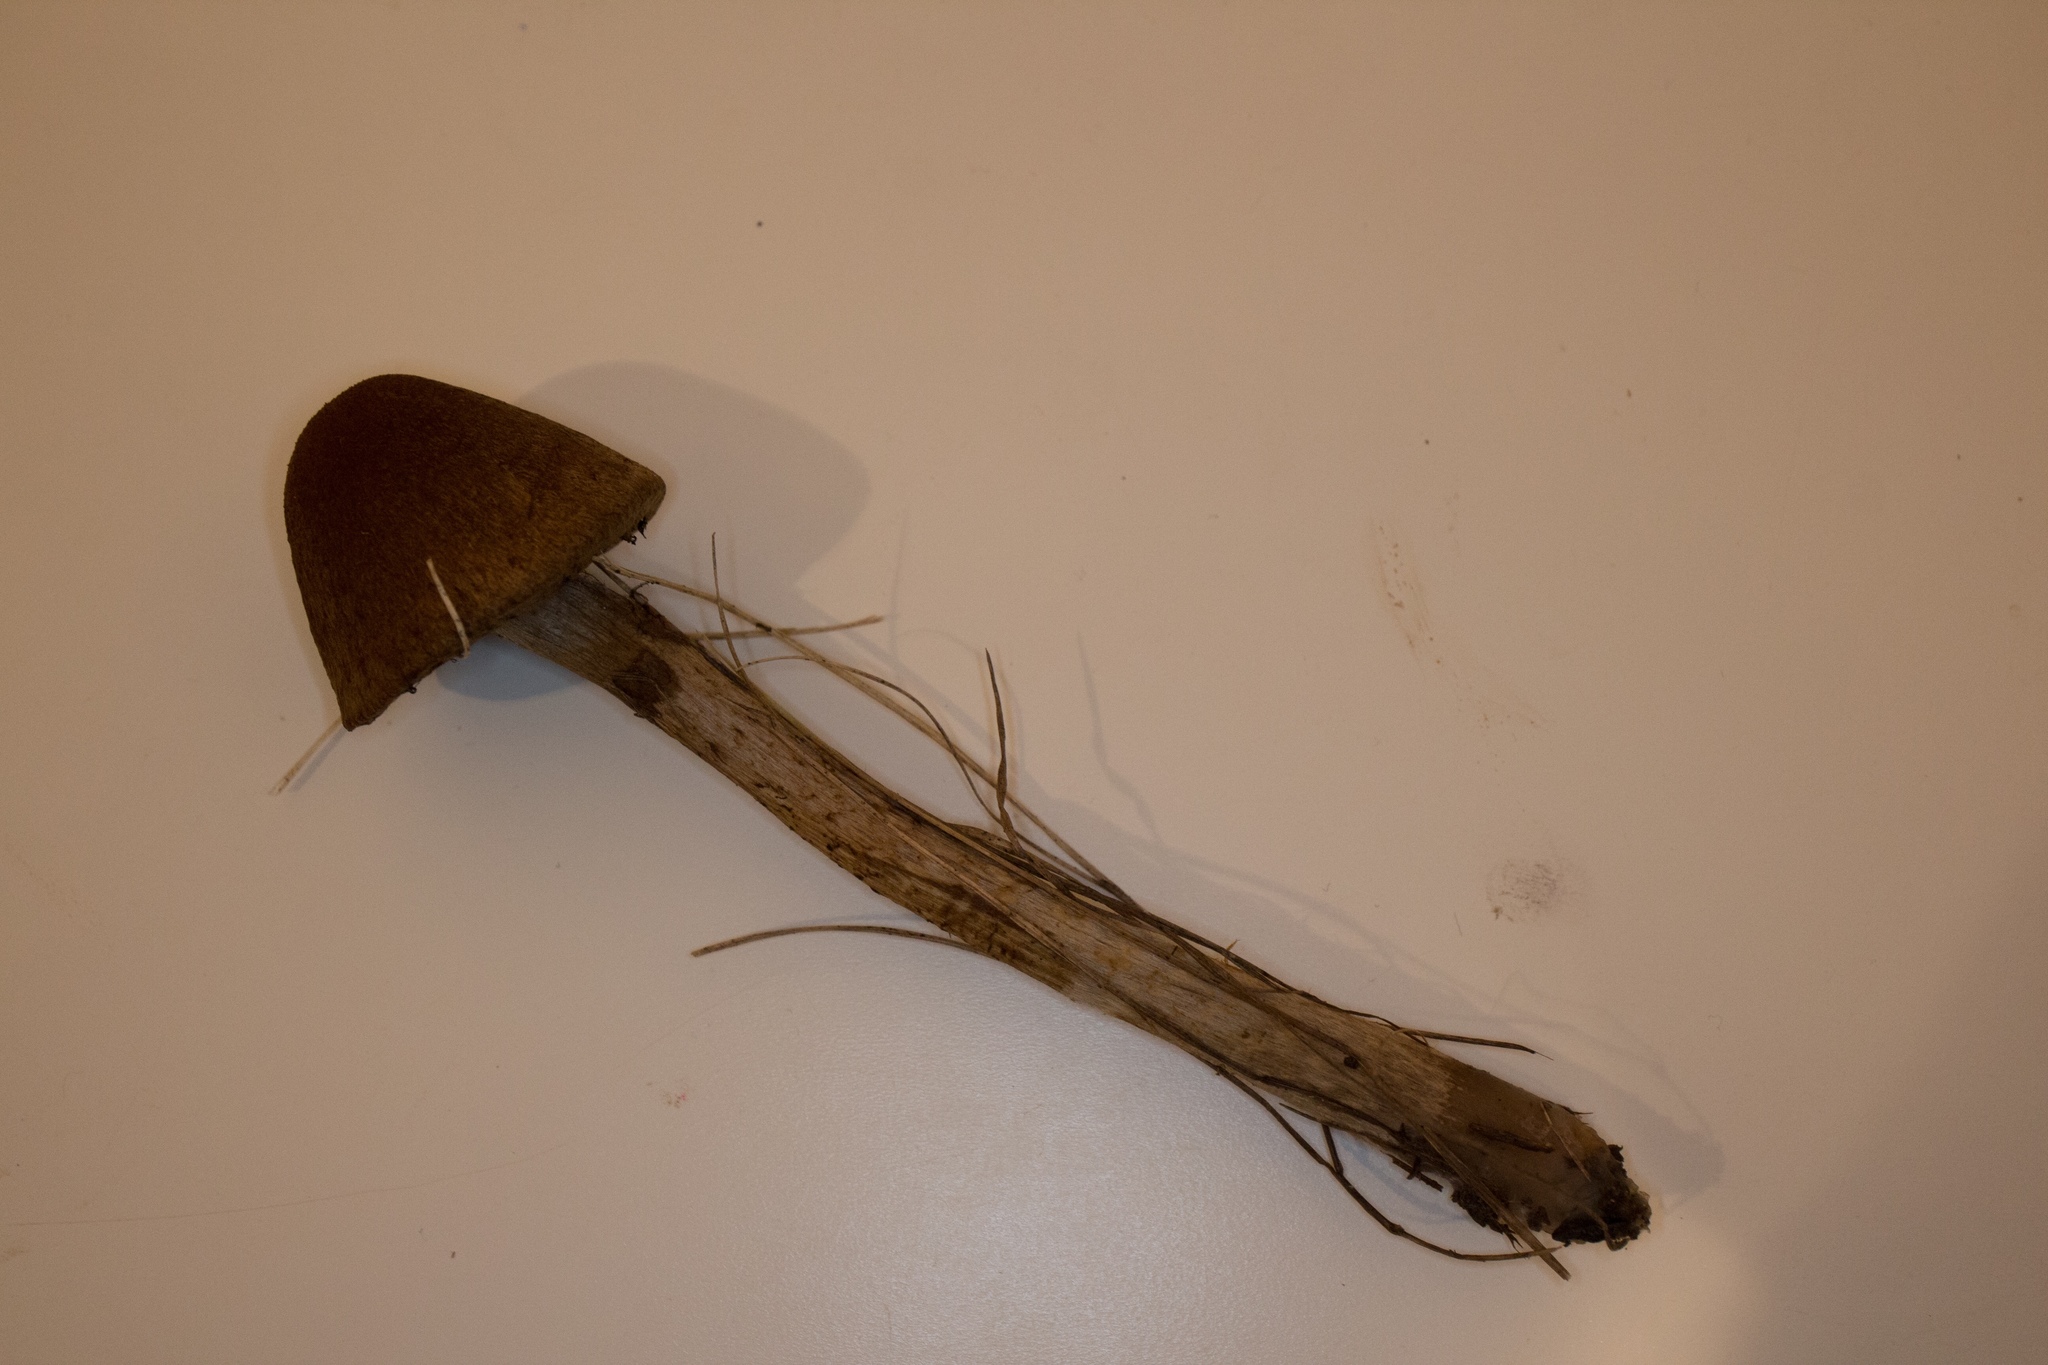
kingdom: Fungi
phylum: Basidiomycota
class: Agaricomycetes
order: Agaricales
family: Psathyrellaceae
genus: Lacrymaria
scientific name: Lacrymaria lacrymabunda
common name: Weeping widow
